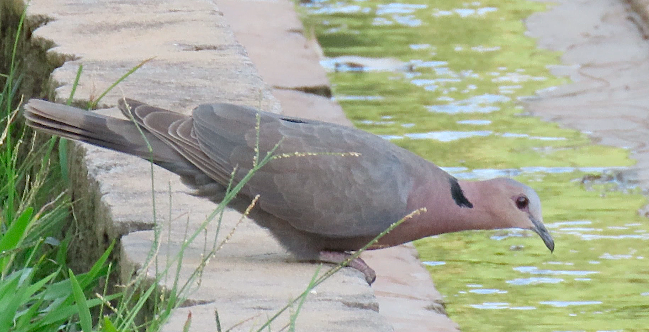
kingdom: Animalia
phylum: Chordata
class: Aves
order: Columbiformes
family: Columbidae
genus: Streptopelia
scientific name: Streptopelia semitorquata
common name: Red-eyed dove
